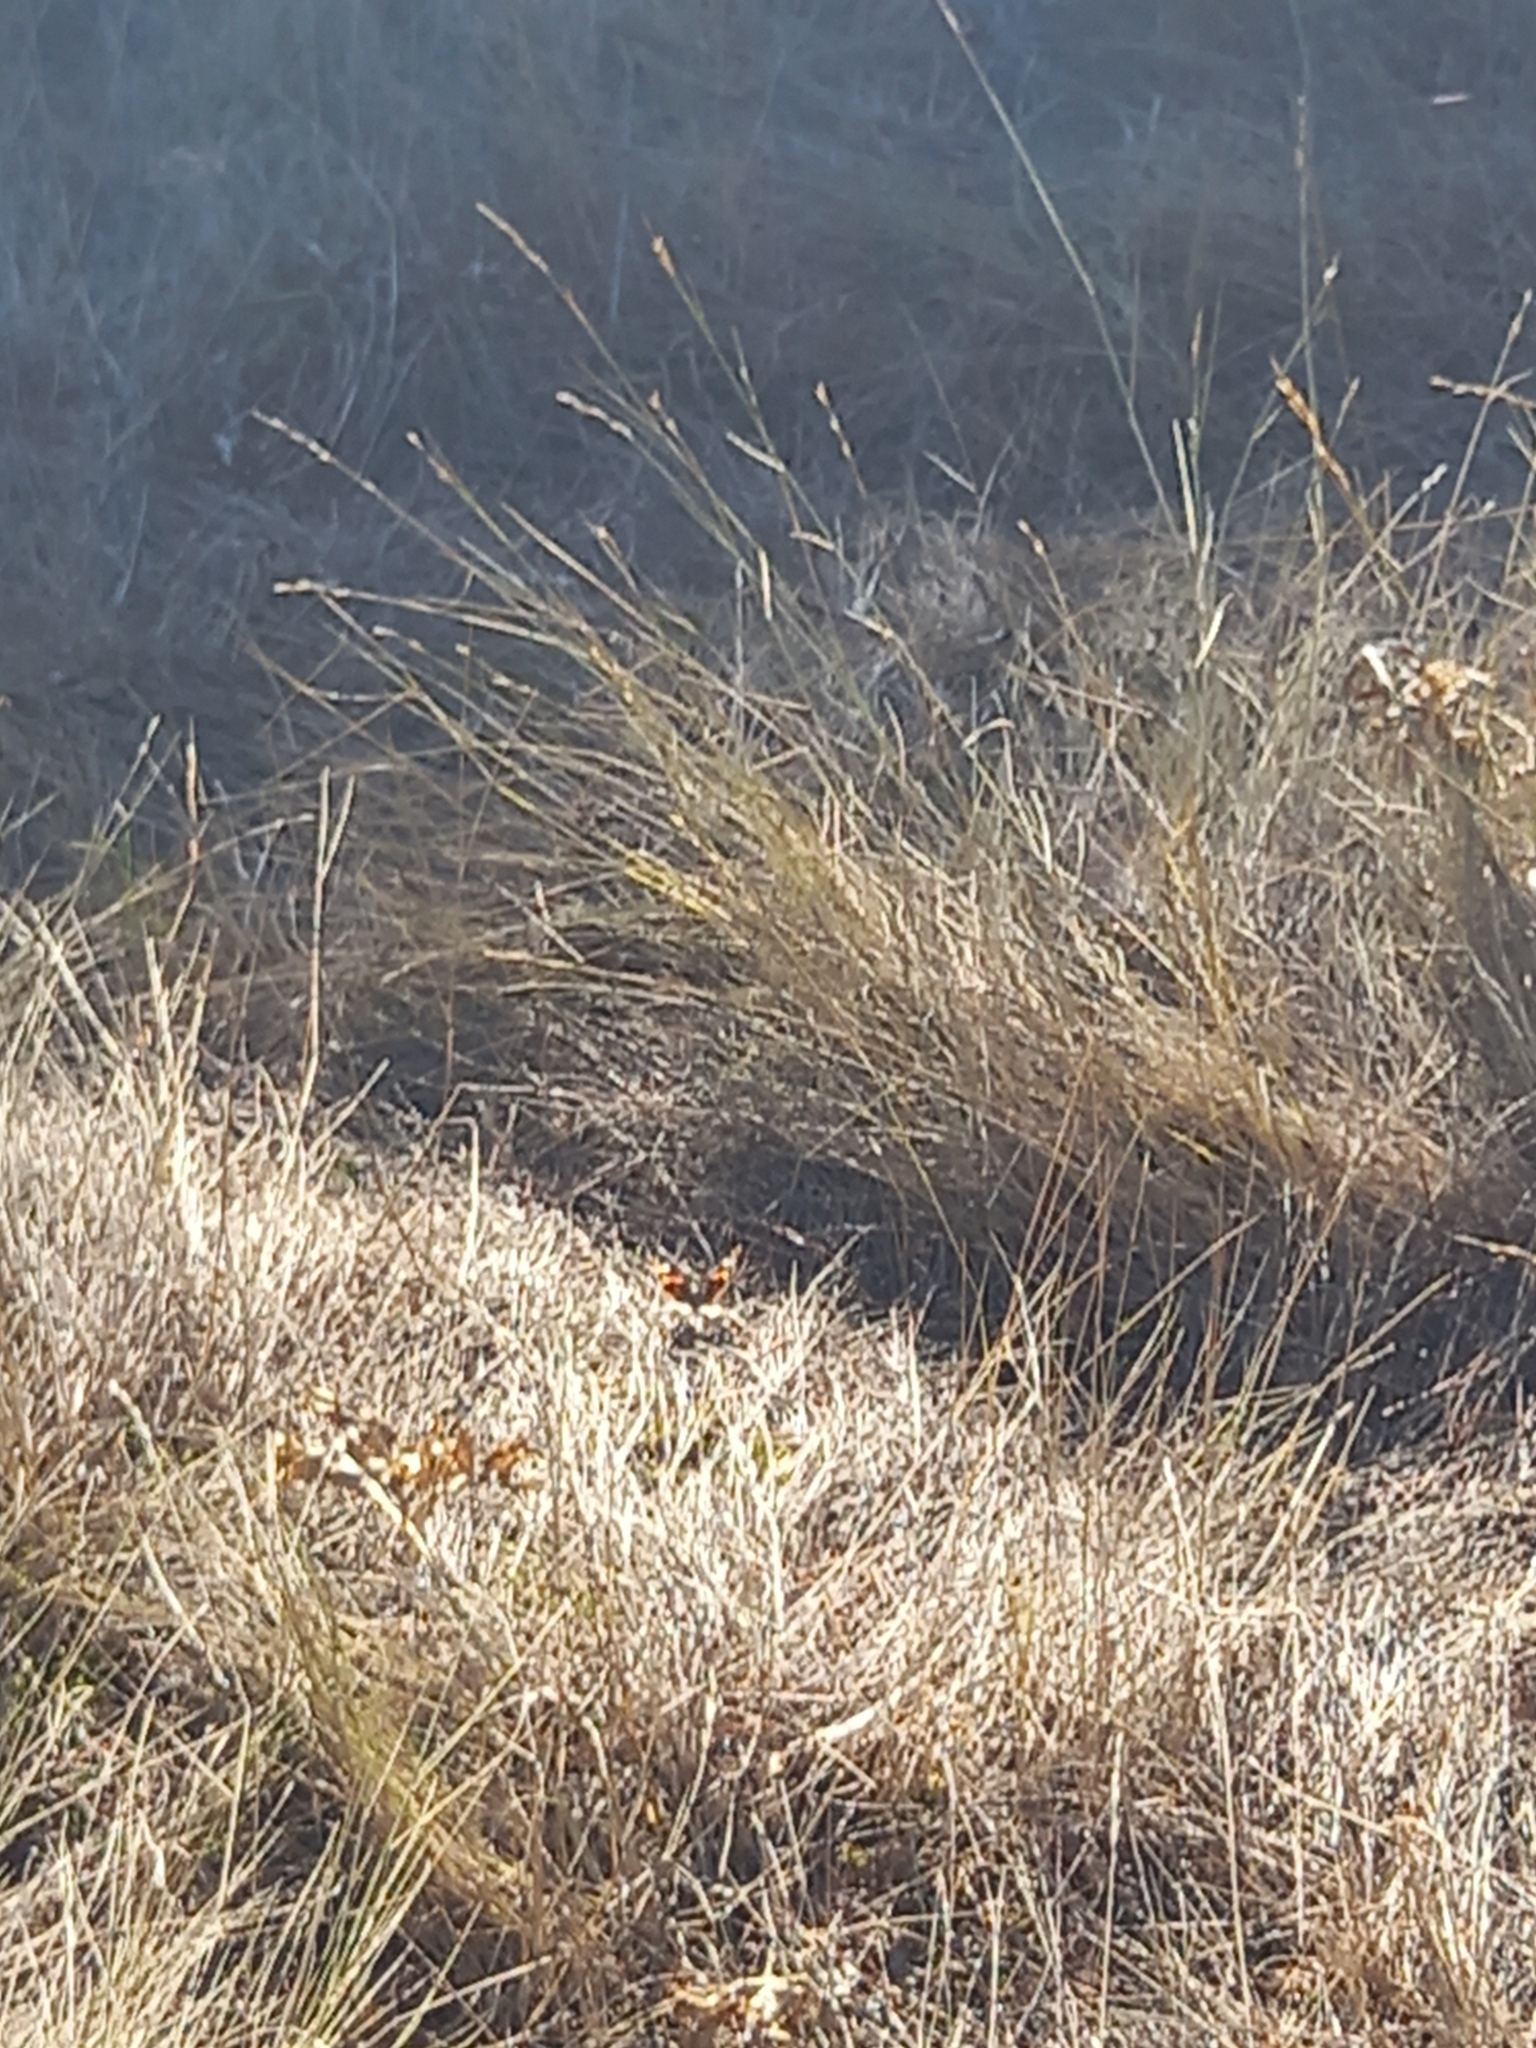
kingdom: Animalia
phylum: Arthropoda
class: Insecta
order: Lepidoptera
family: Nymphalidae
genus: Vanessa
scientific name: Vanessa atalanta
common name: Red admiral
